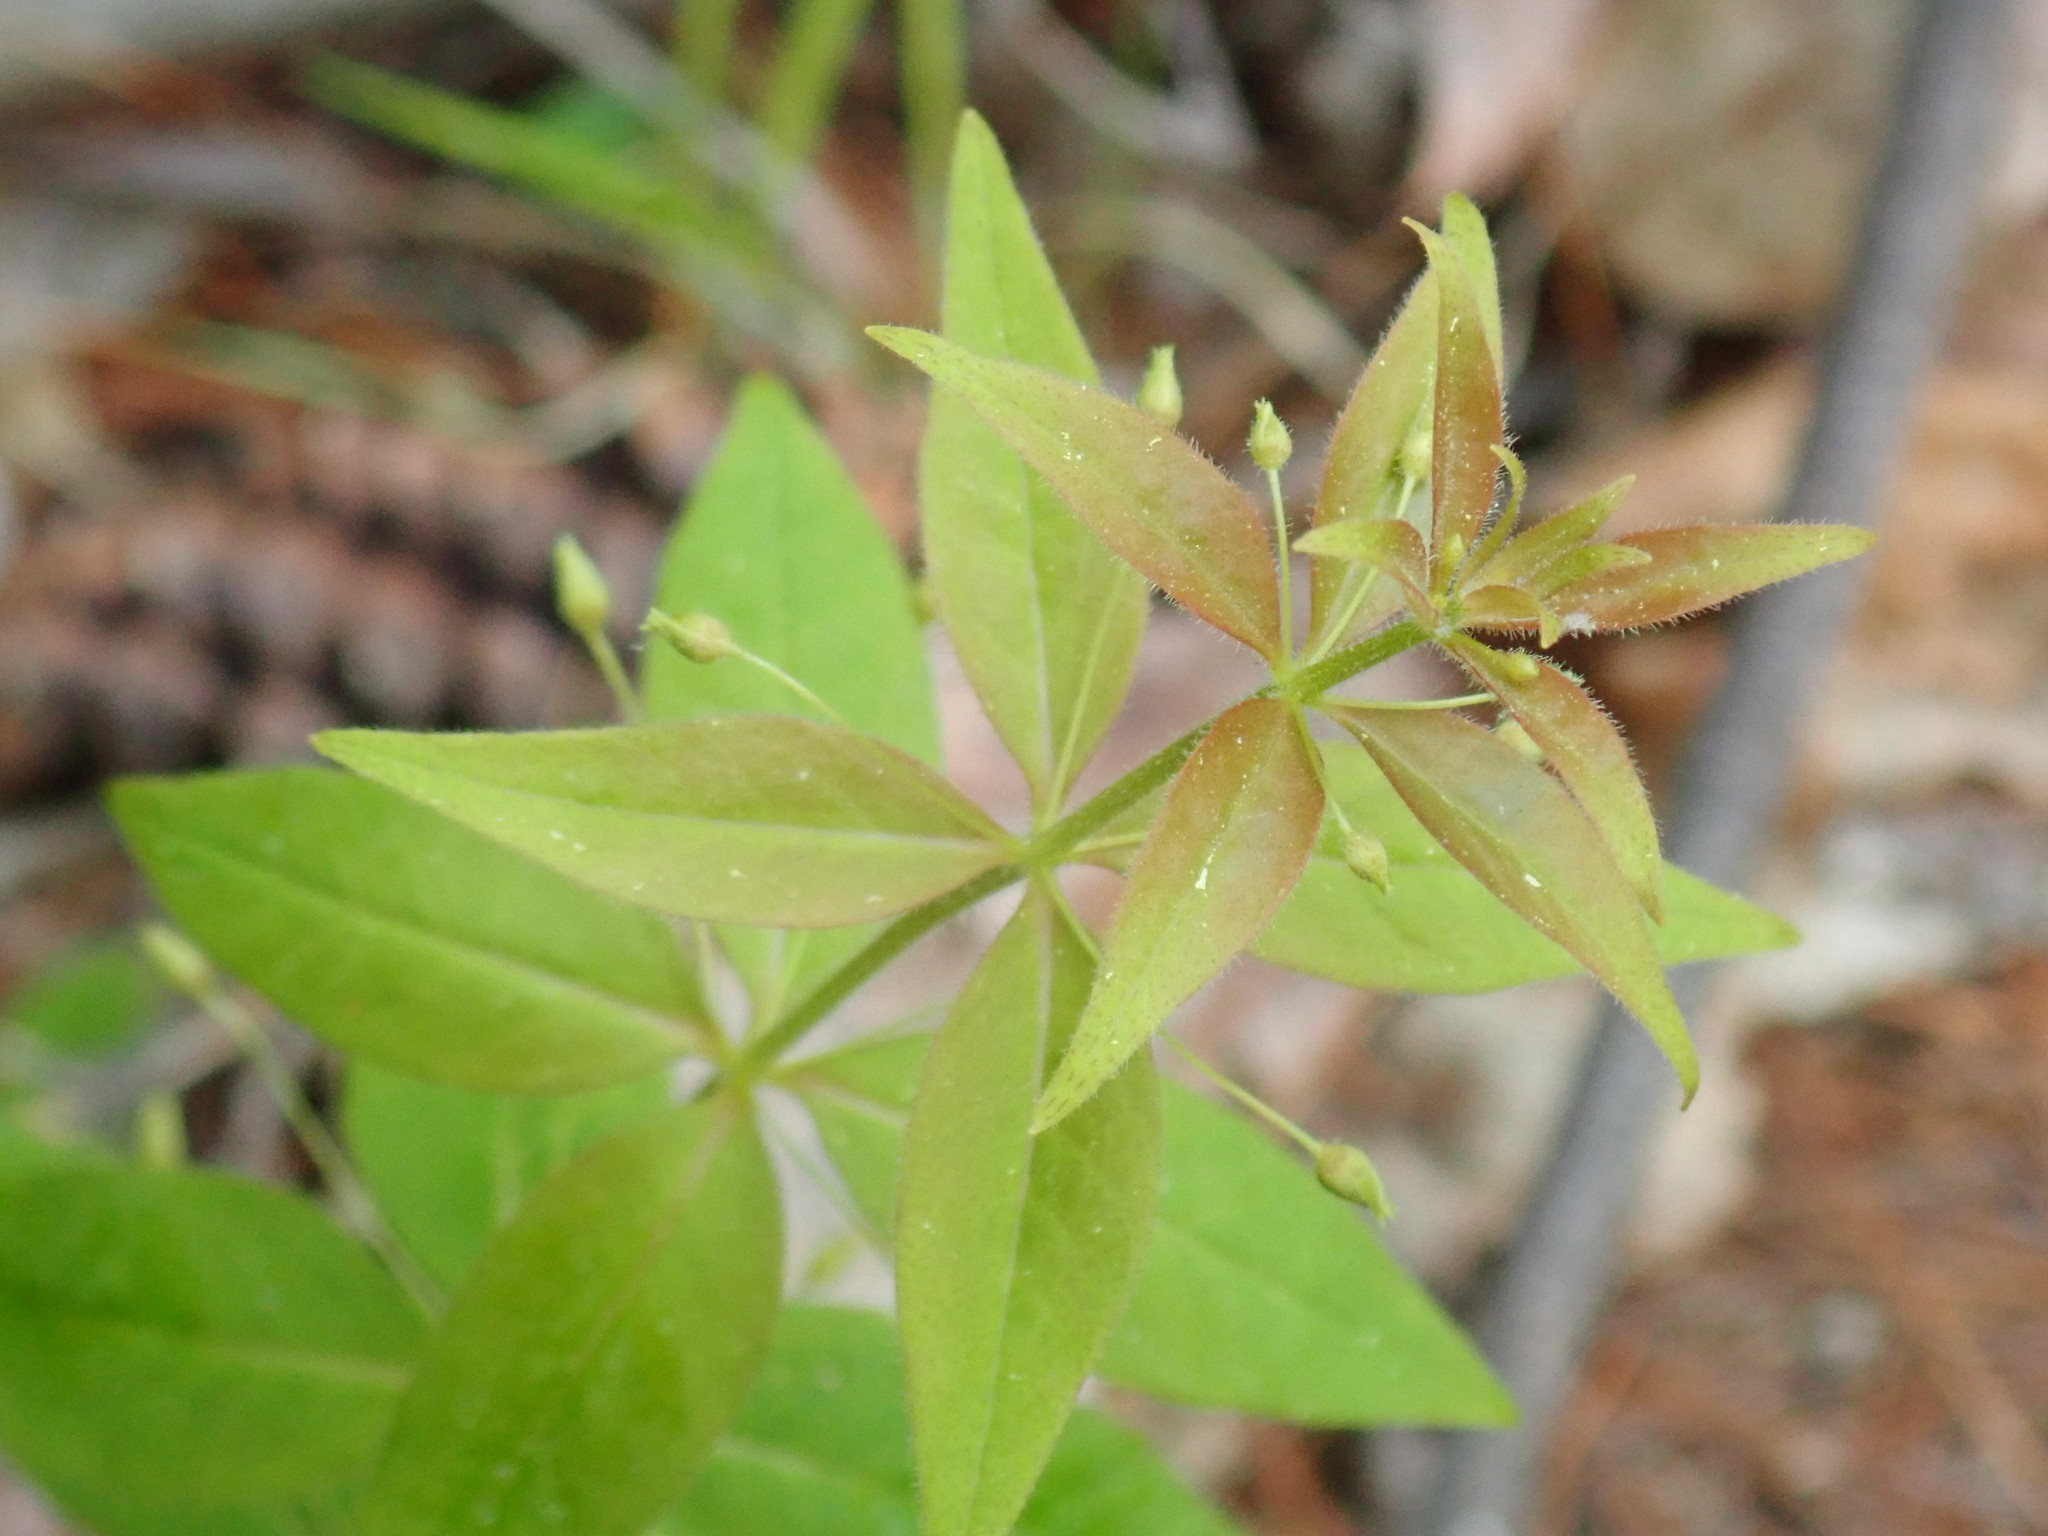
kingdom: Plantae
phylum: Tracheophyta
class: Magnoliopsida
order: Ericales
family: Primulaceae
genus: Lysimachia
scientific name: Lysimachia quadrifolia
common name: Whorled loosestrife
